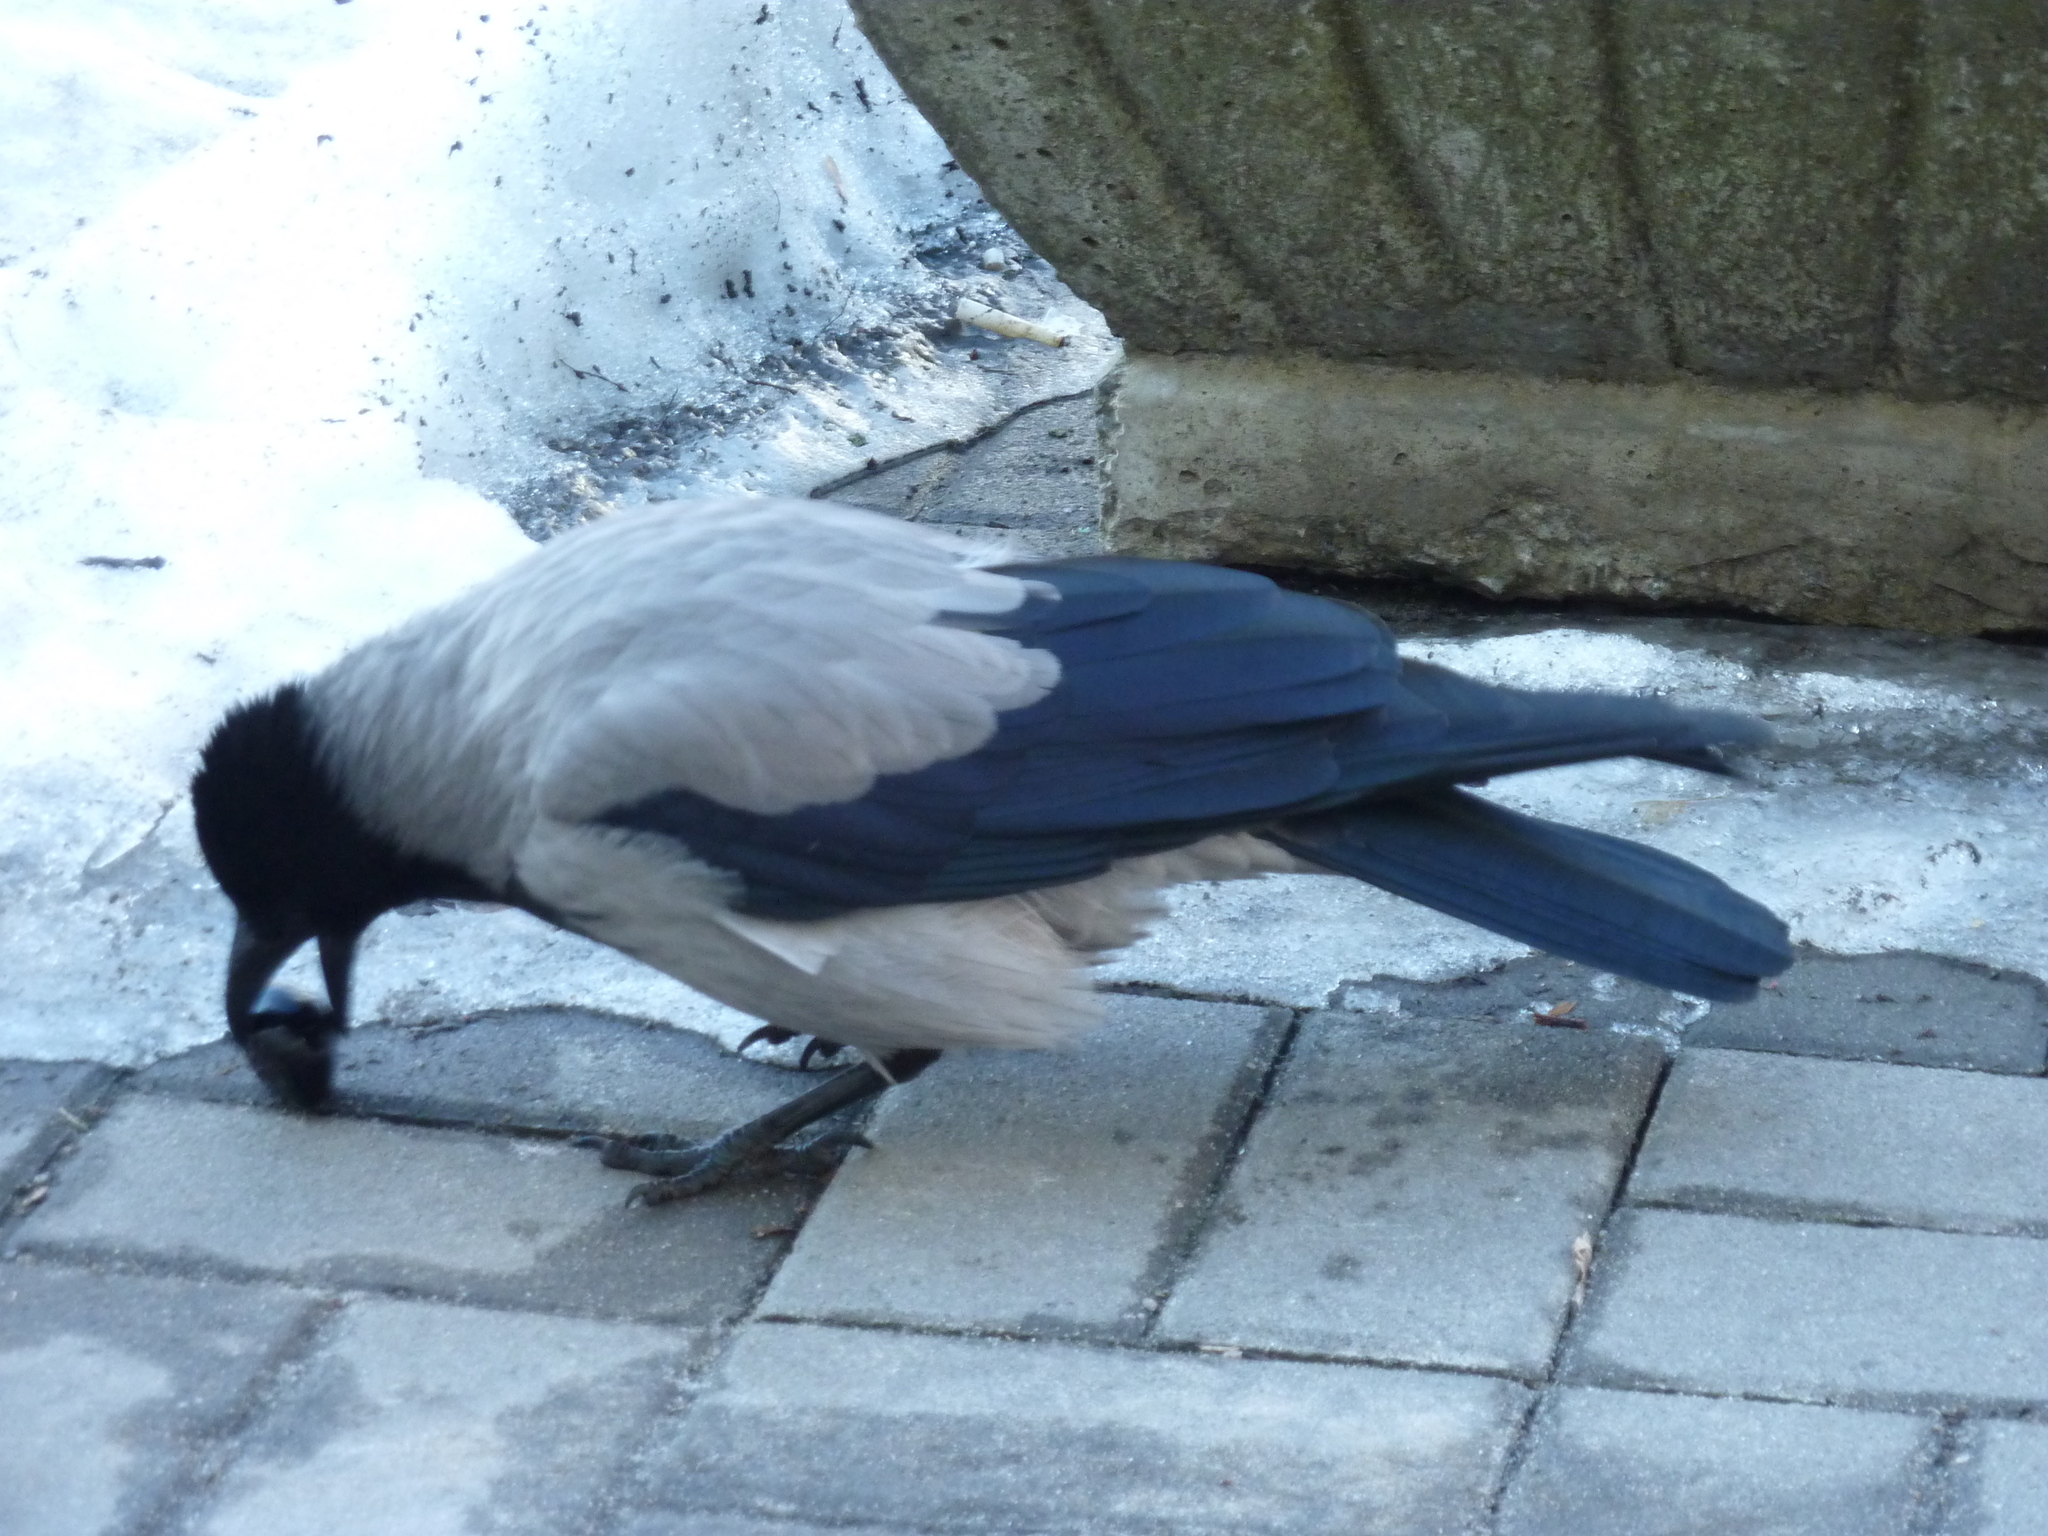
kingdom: Animalia
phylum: Chordata
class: Aves
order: Passeriformes
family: Corvidae
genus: Corvus
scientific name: Corvus cornix
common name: Hooded crow
